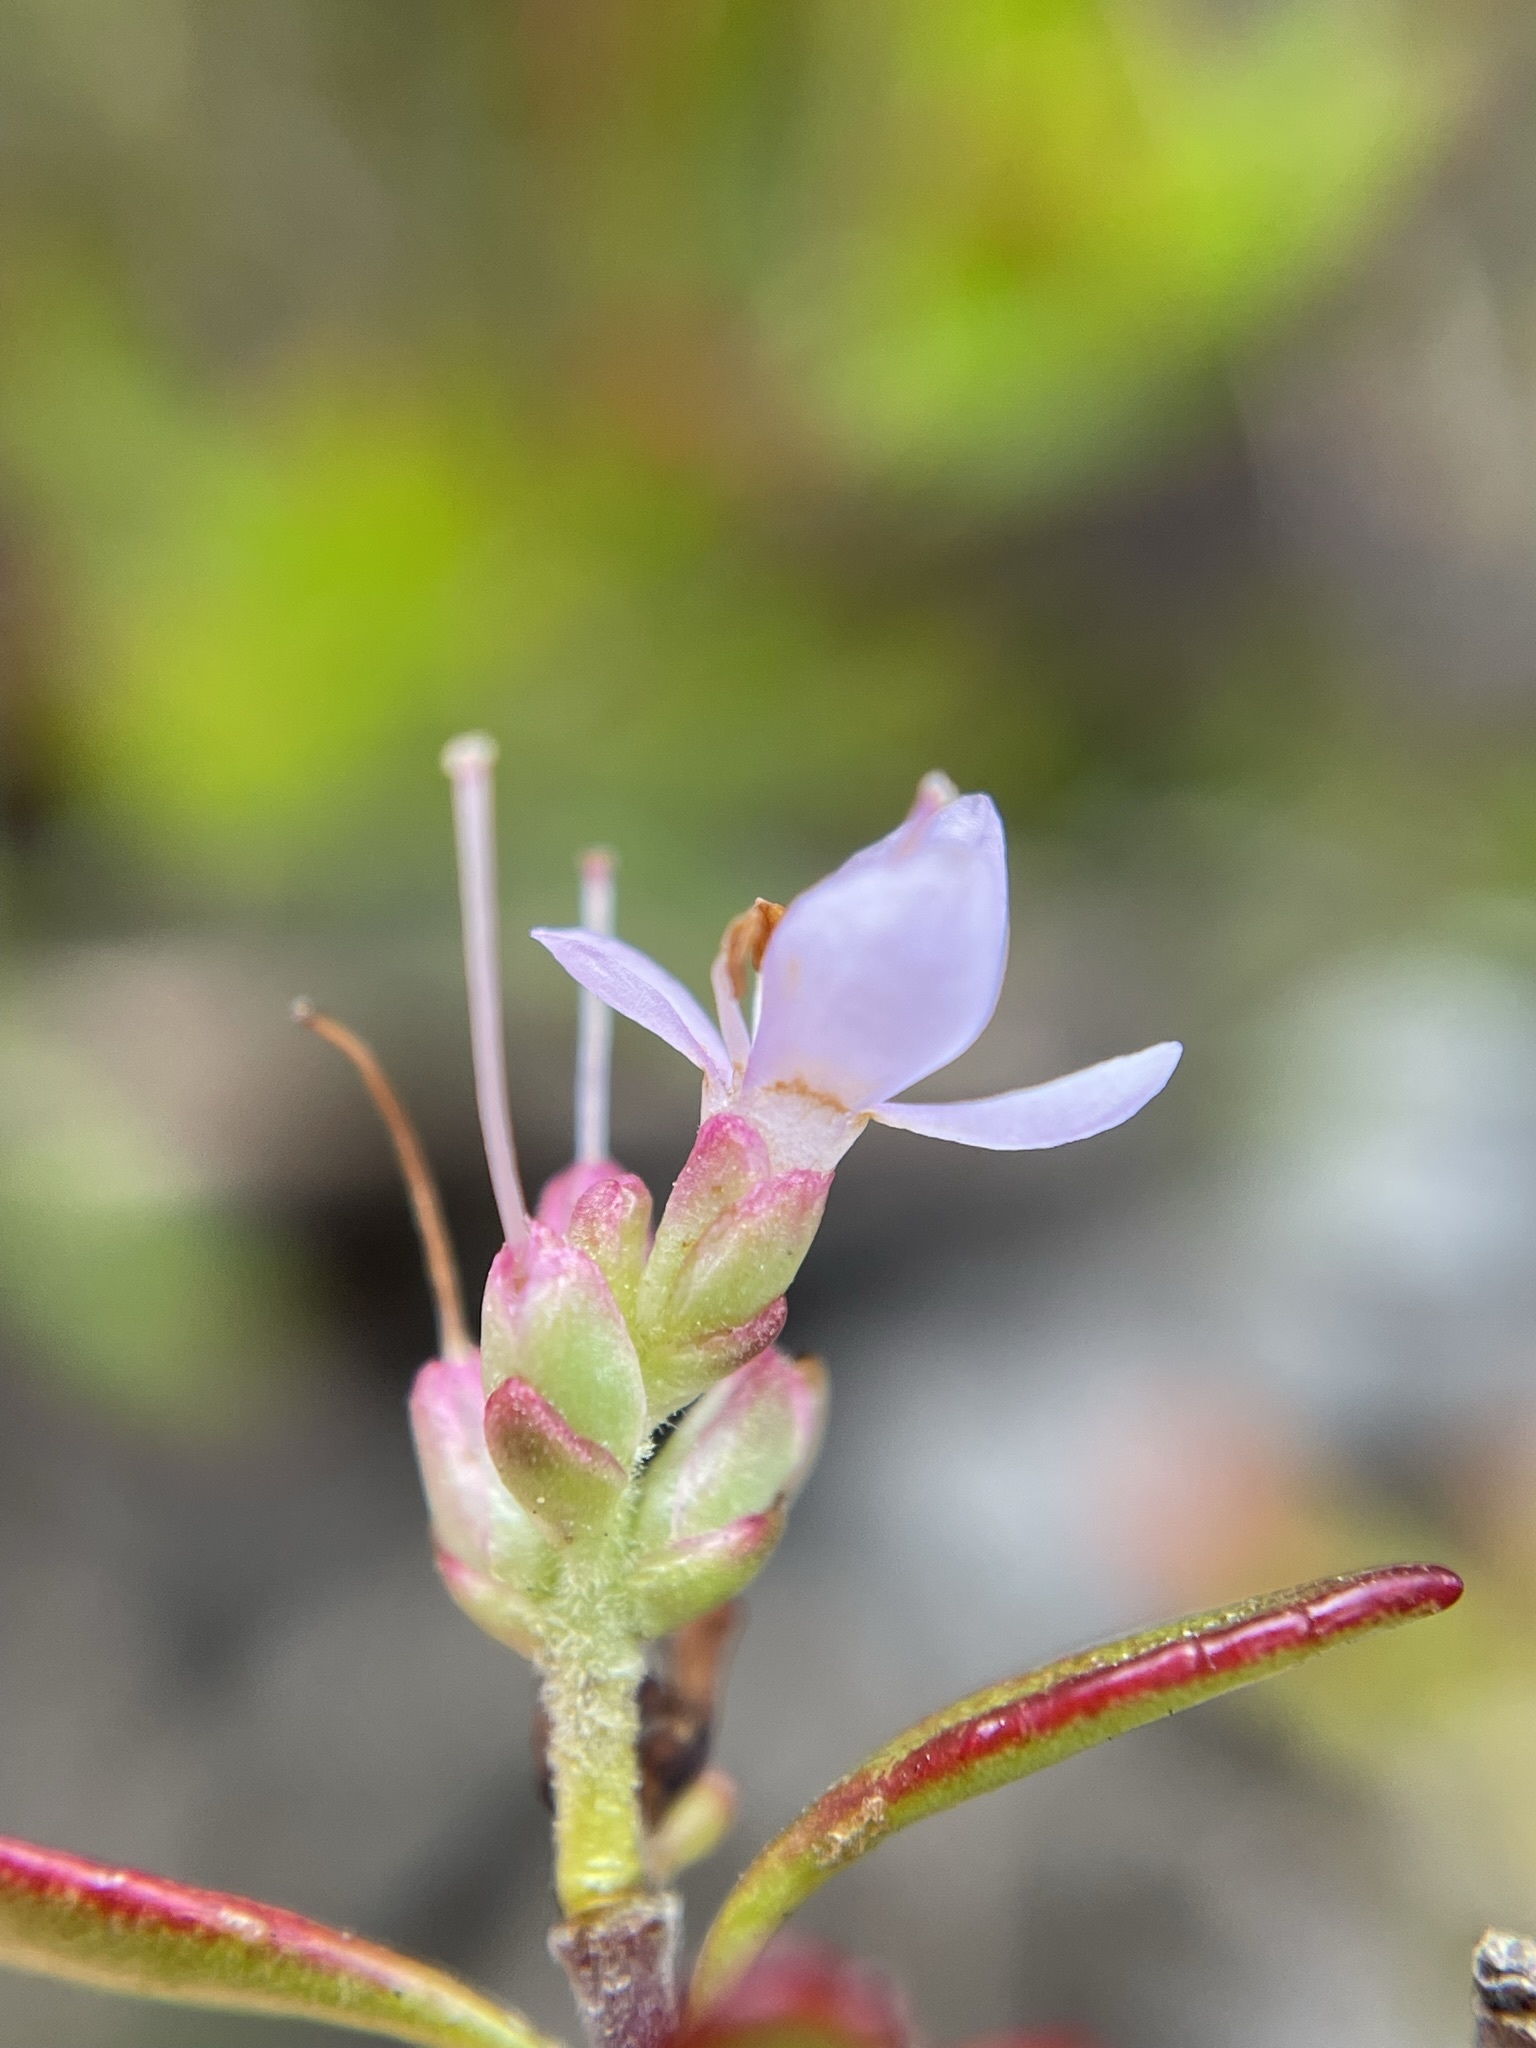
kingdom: Plantae
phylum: Tracheophyta
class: Magnoliopsida
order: Lamiales
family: Plantaginaceae
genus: Veronica
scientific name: Veronica raoulii
